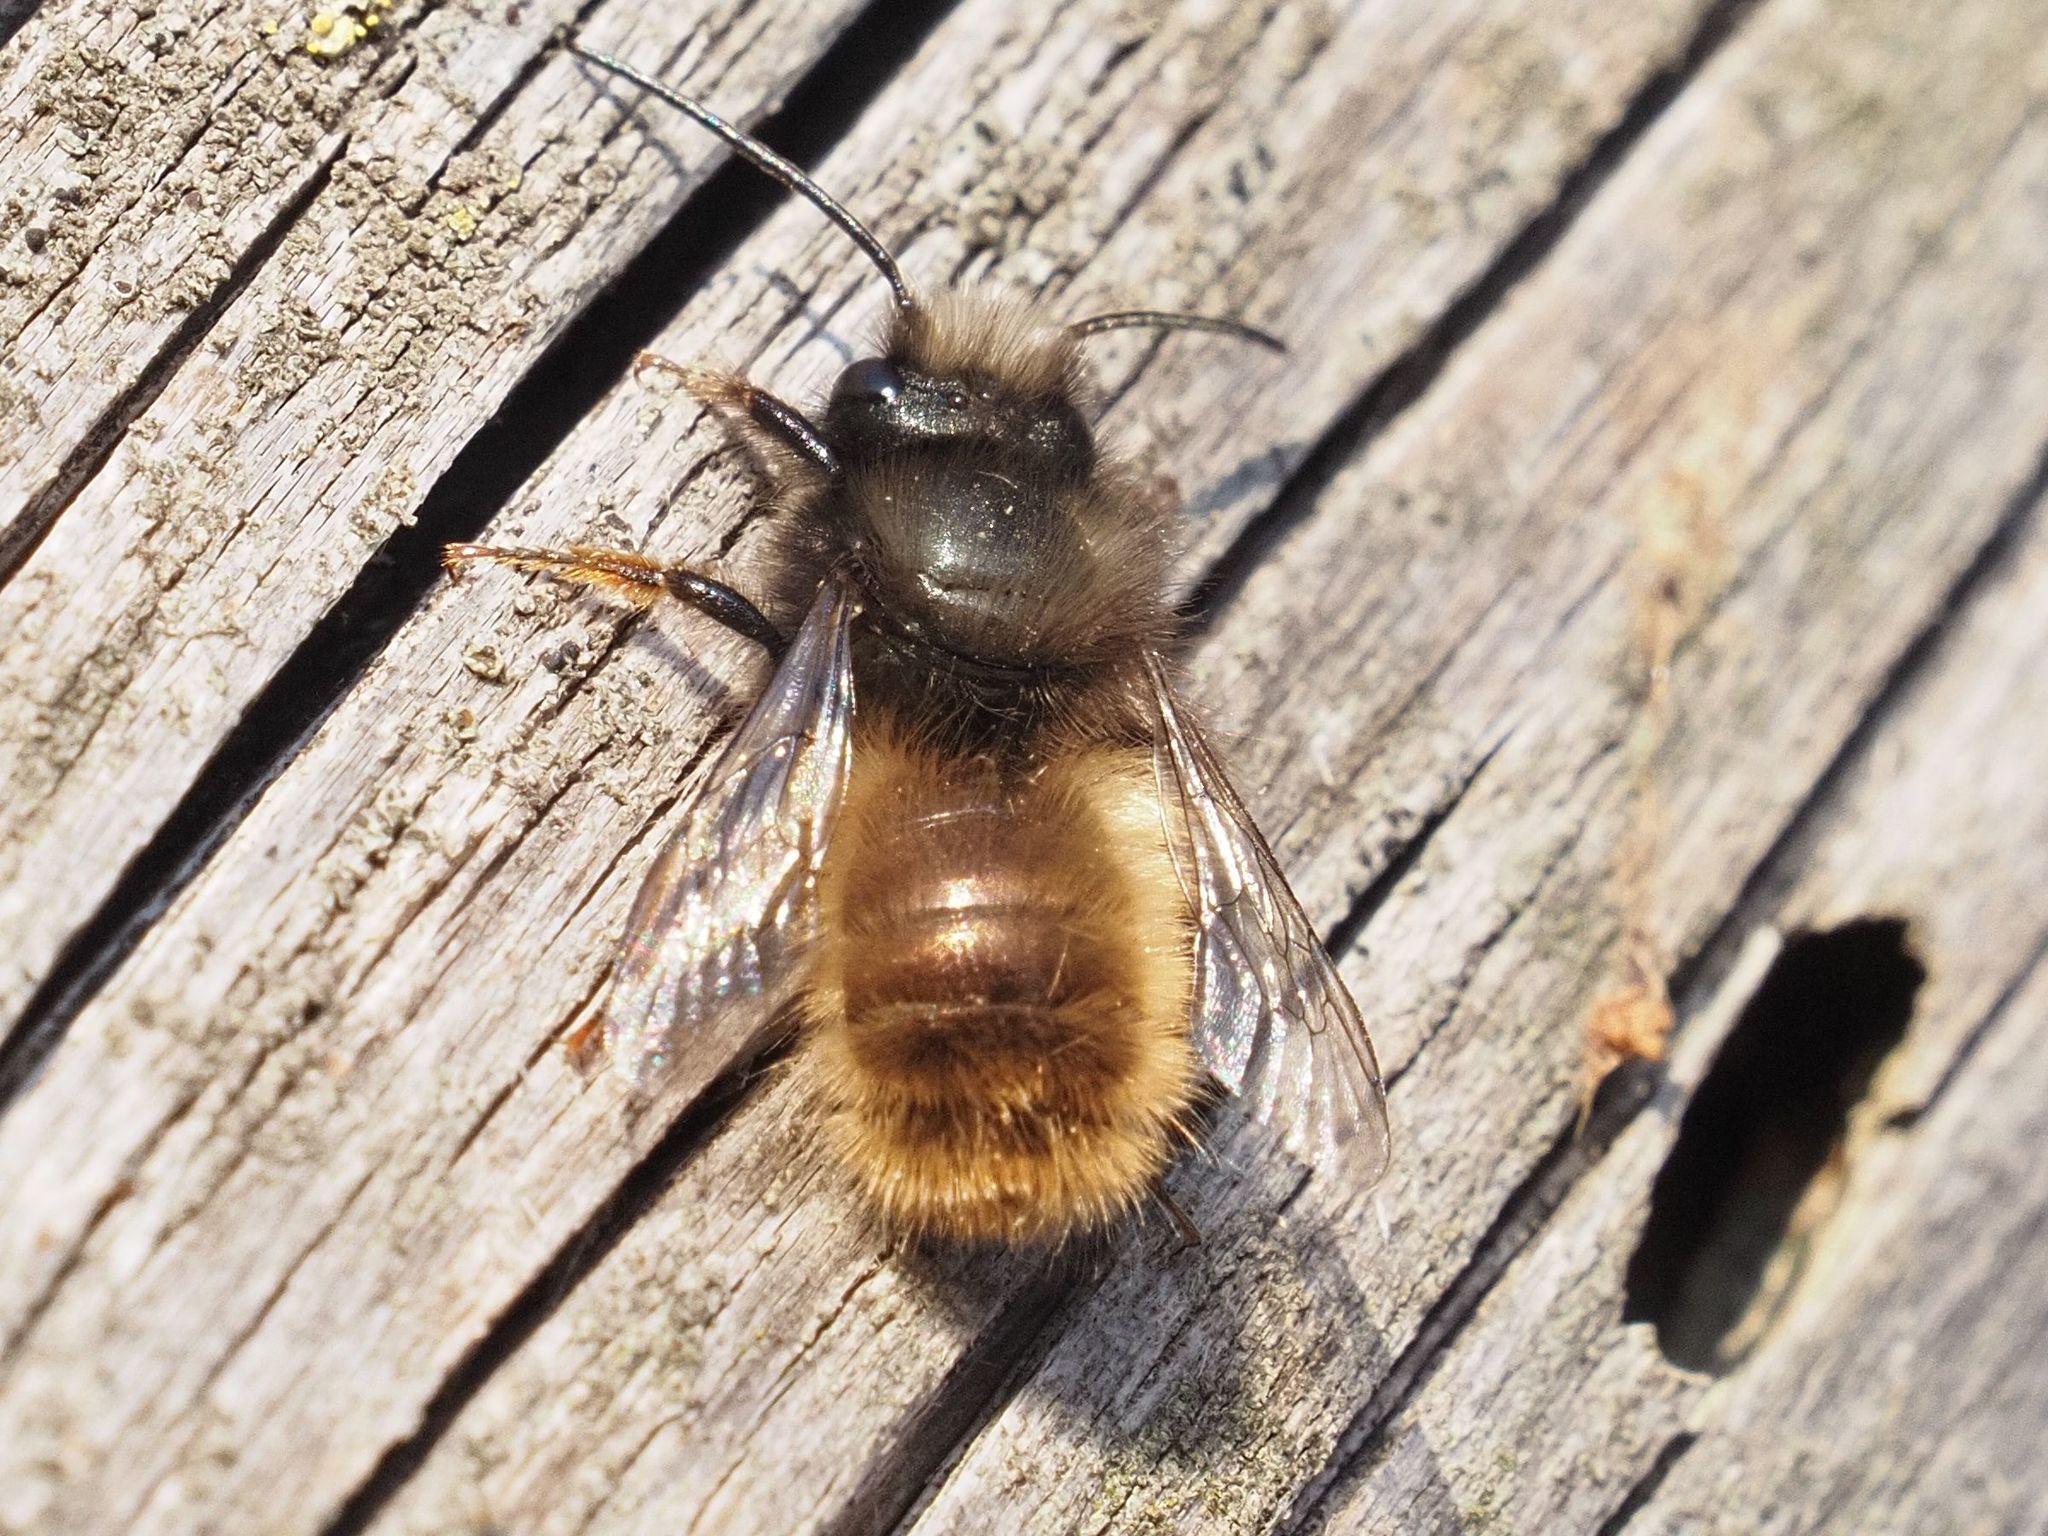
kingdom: Animalia
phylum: Arthropoda
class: Insecta
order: Hymenoptera
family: Megachilidae
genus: Osmia
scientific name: Osmia cornuta
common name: Mason bee
